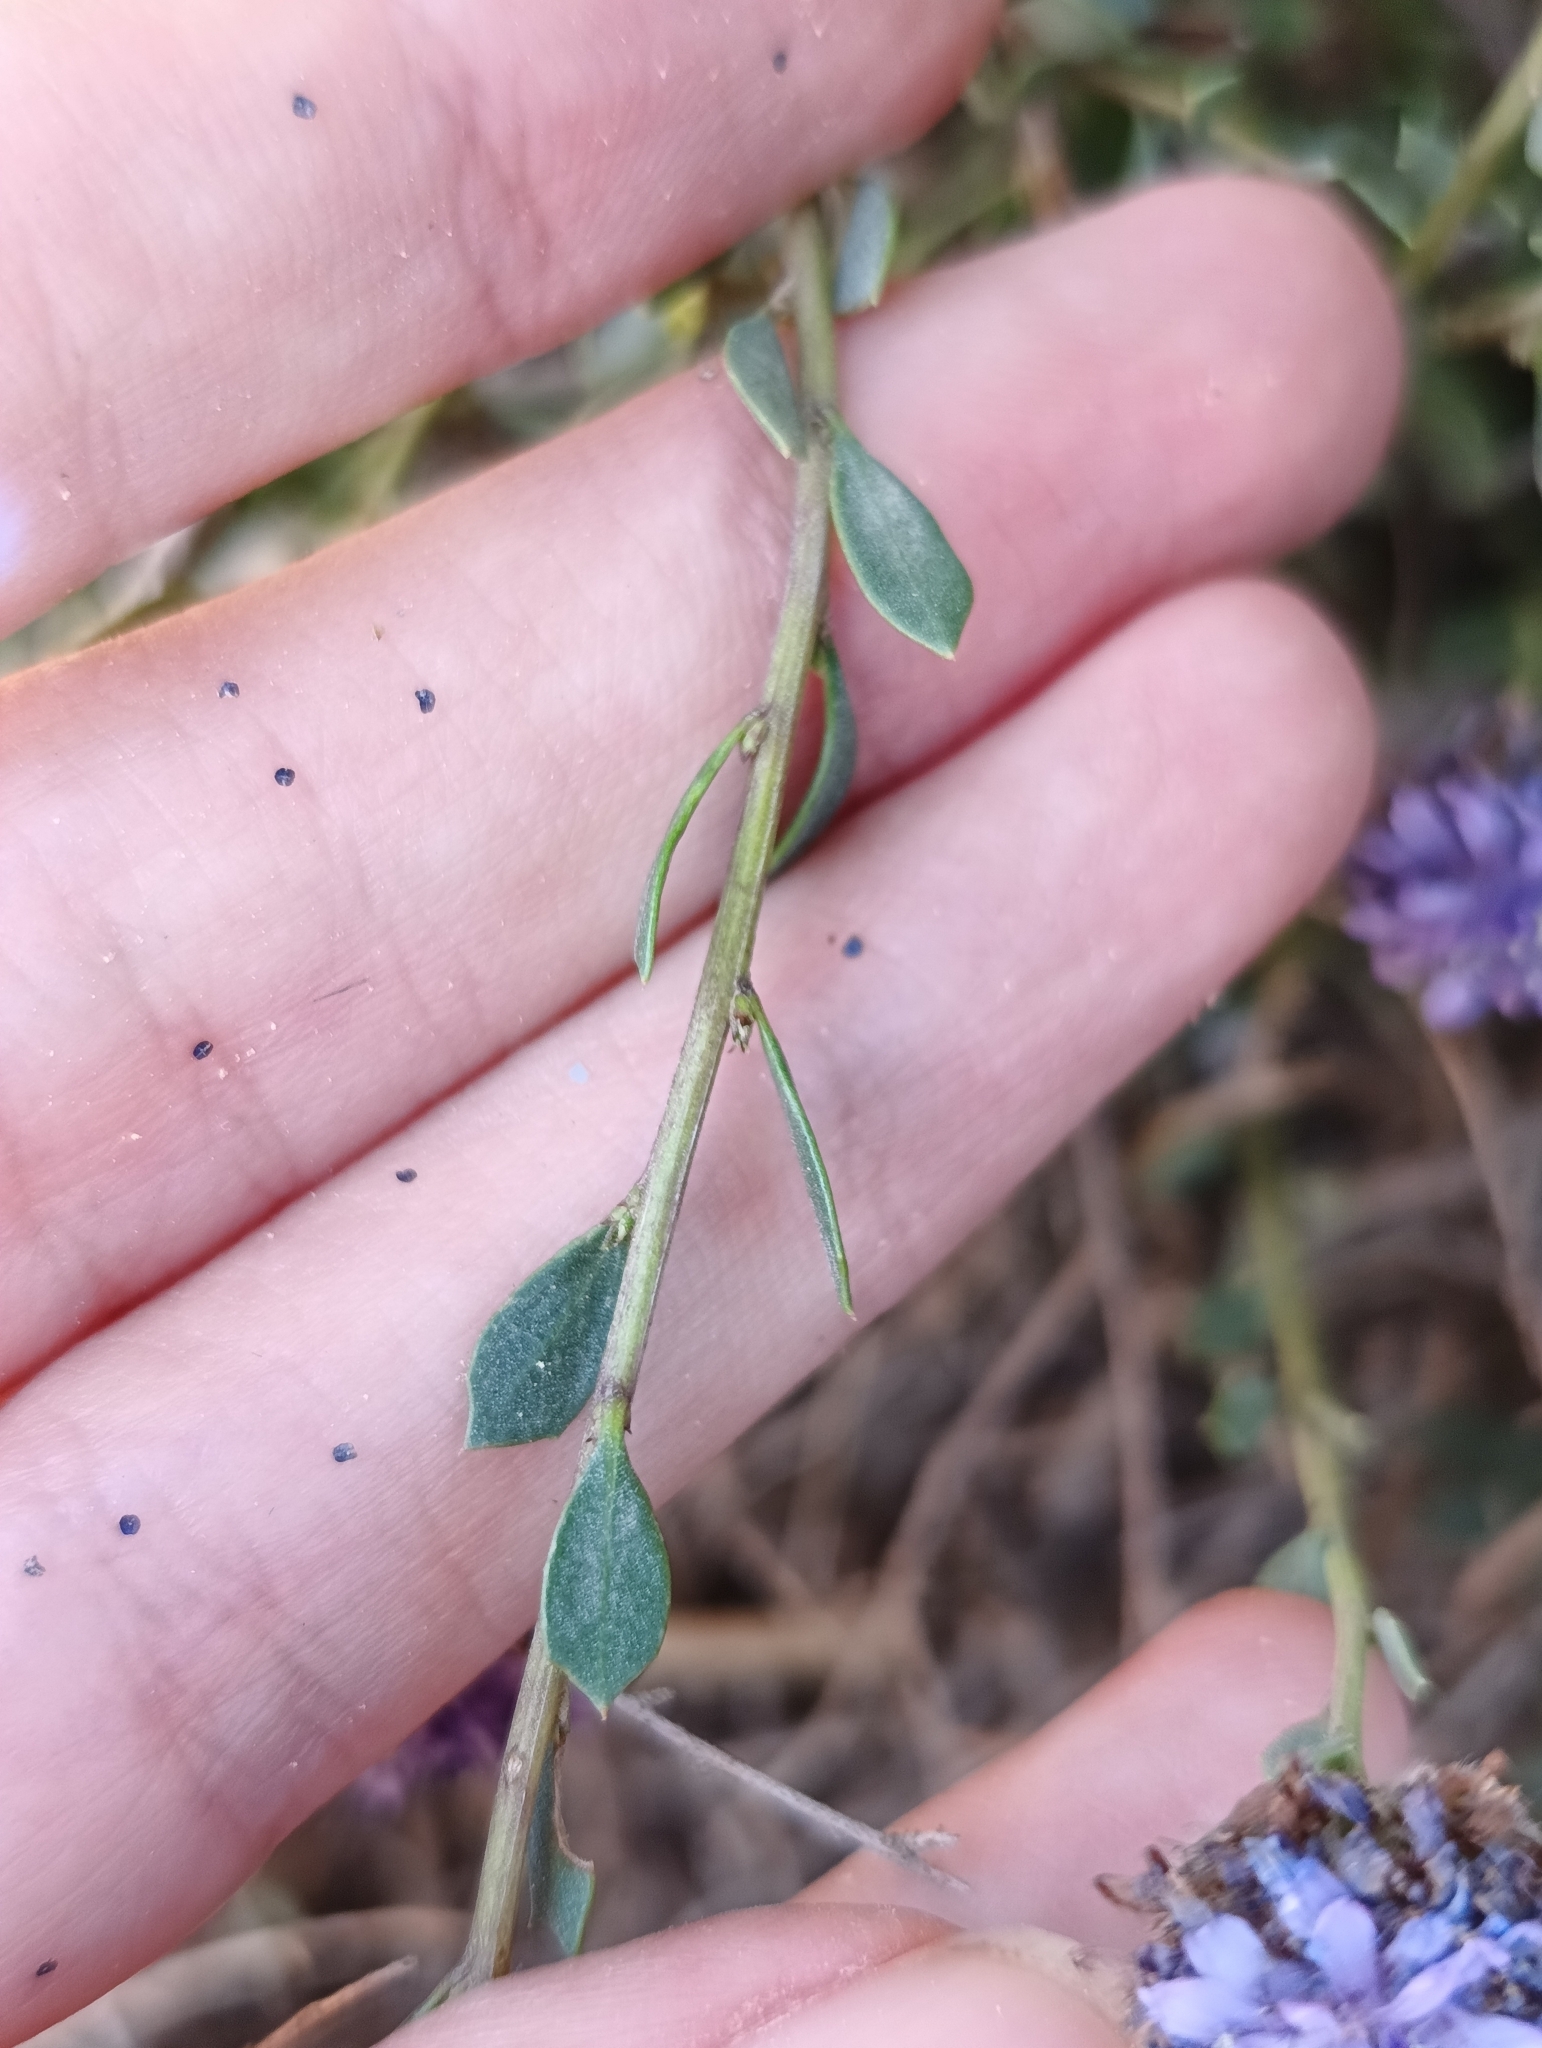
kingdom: Plantae
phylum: Tracheophyta
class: Magnoliopsida
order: Lamiales
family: Plantaginaceae
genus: Globularia
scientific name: Globularia alypum
